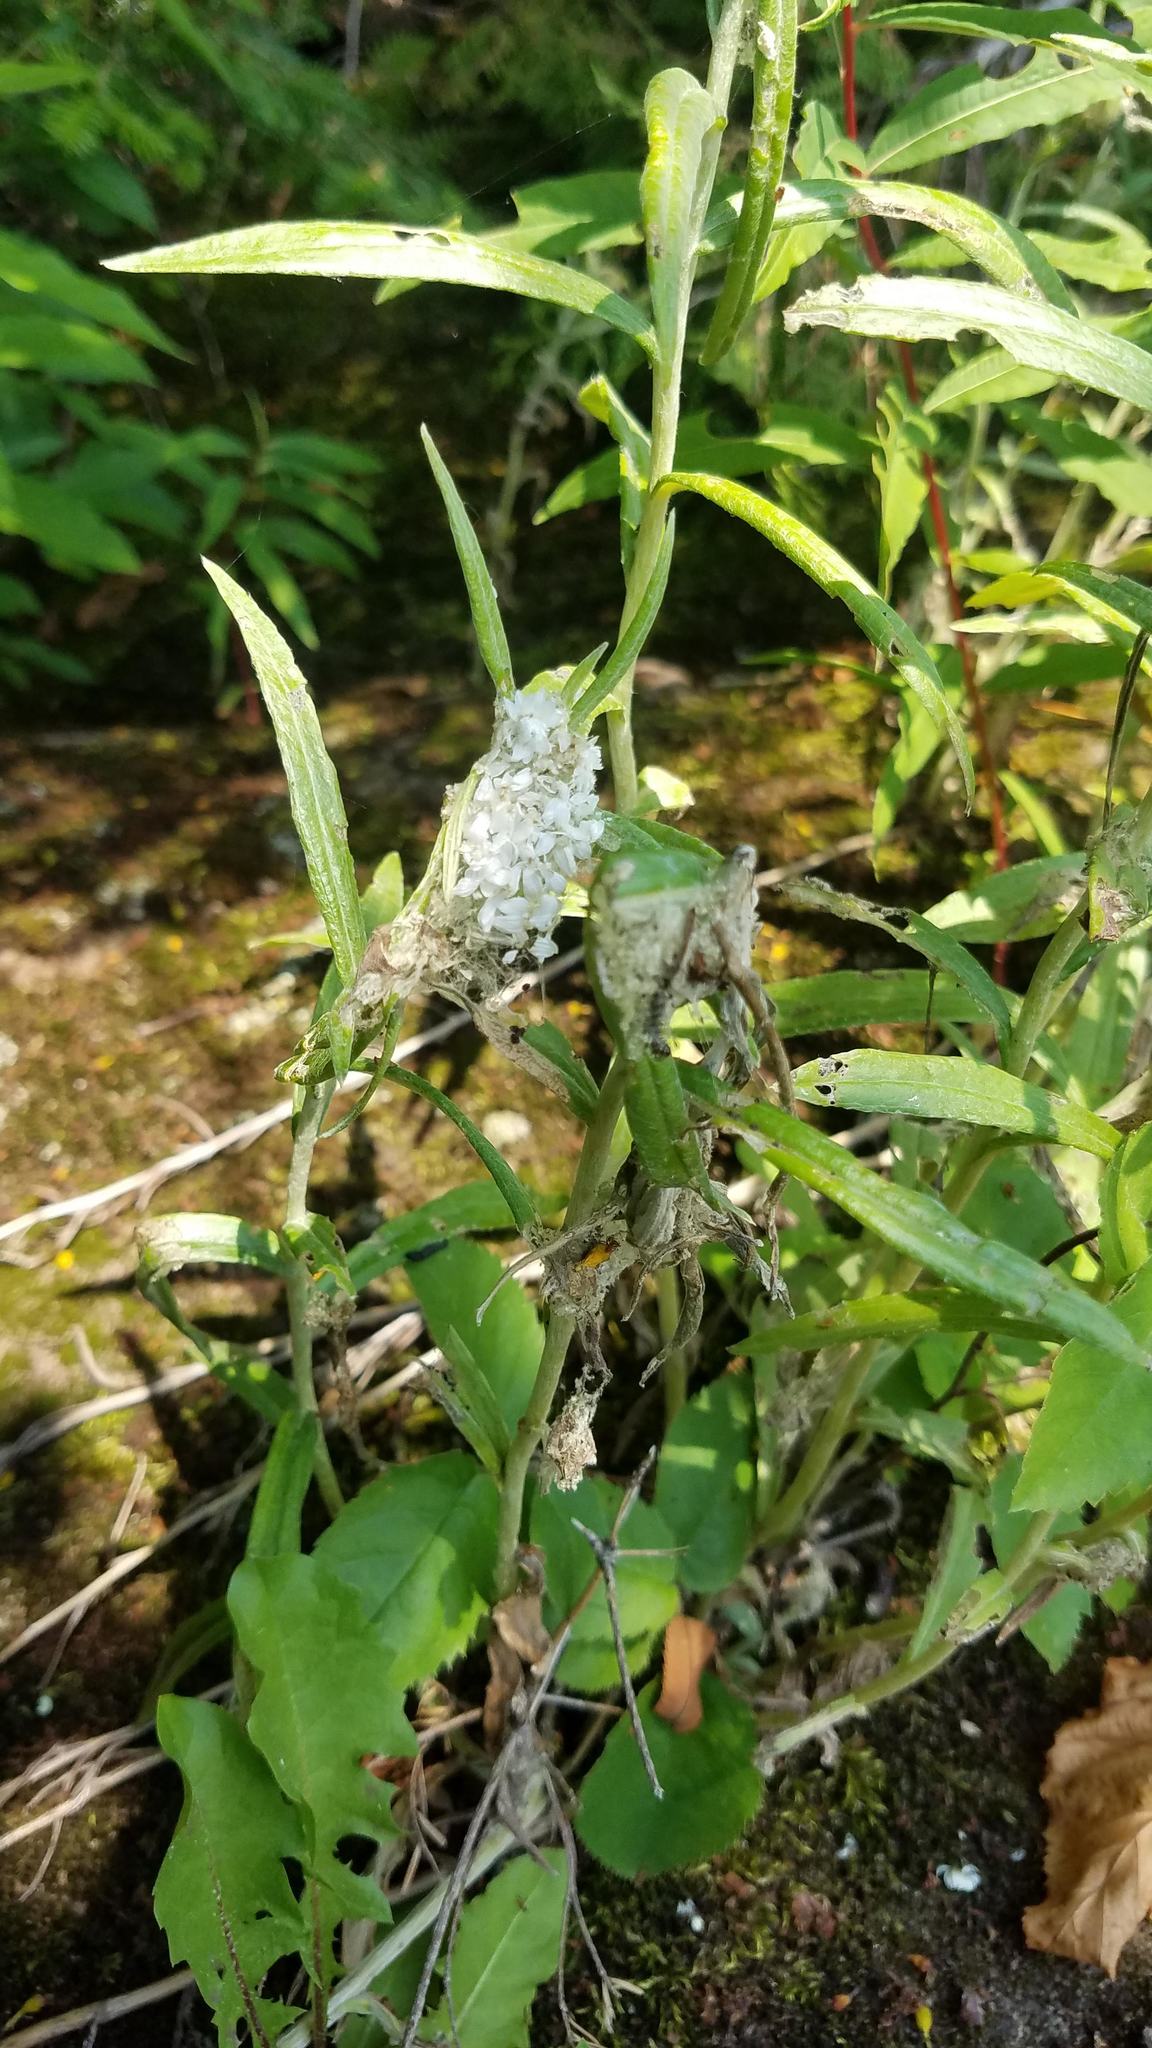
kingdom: Plantae
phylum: Tracheophyta
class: Magnoliopsida
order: Asterales
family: Asteraceae
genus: Anaphalis
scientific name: Anaphalis margaritacea
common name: Pearly everlasting
